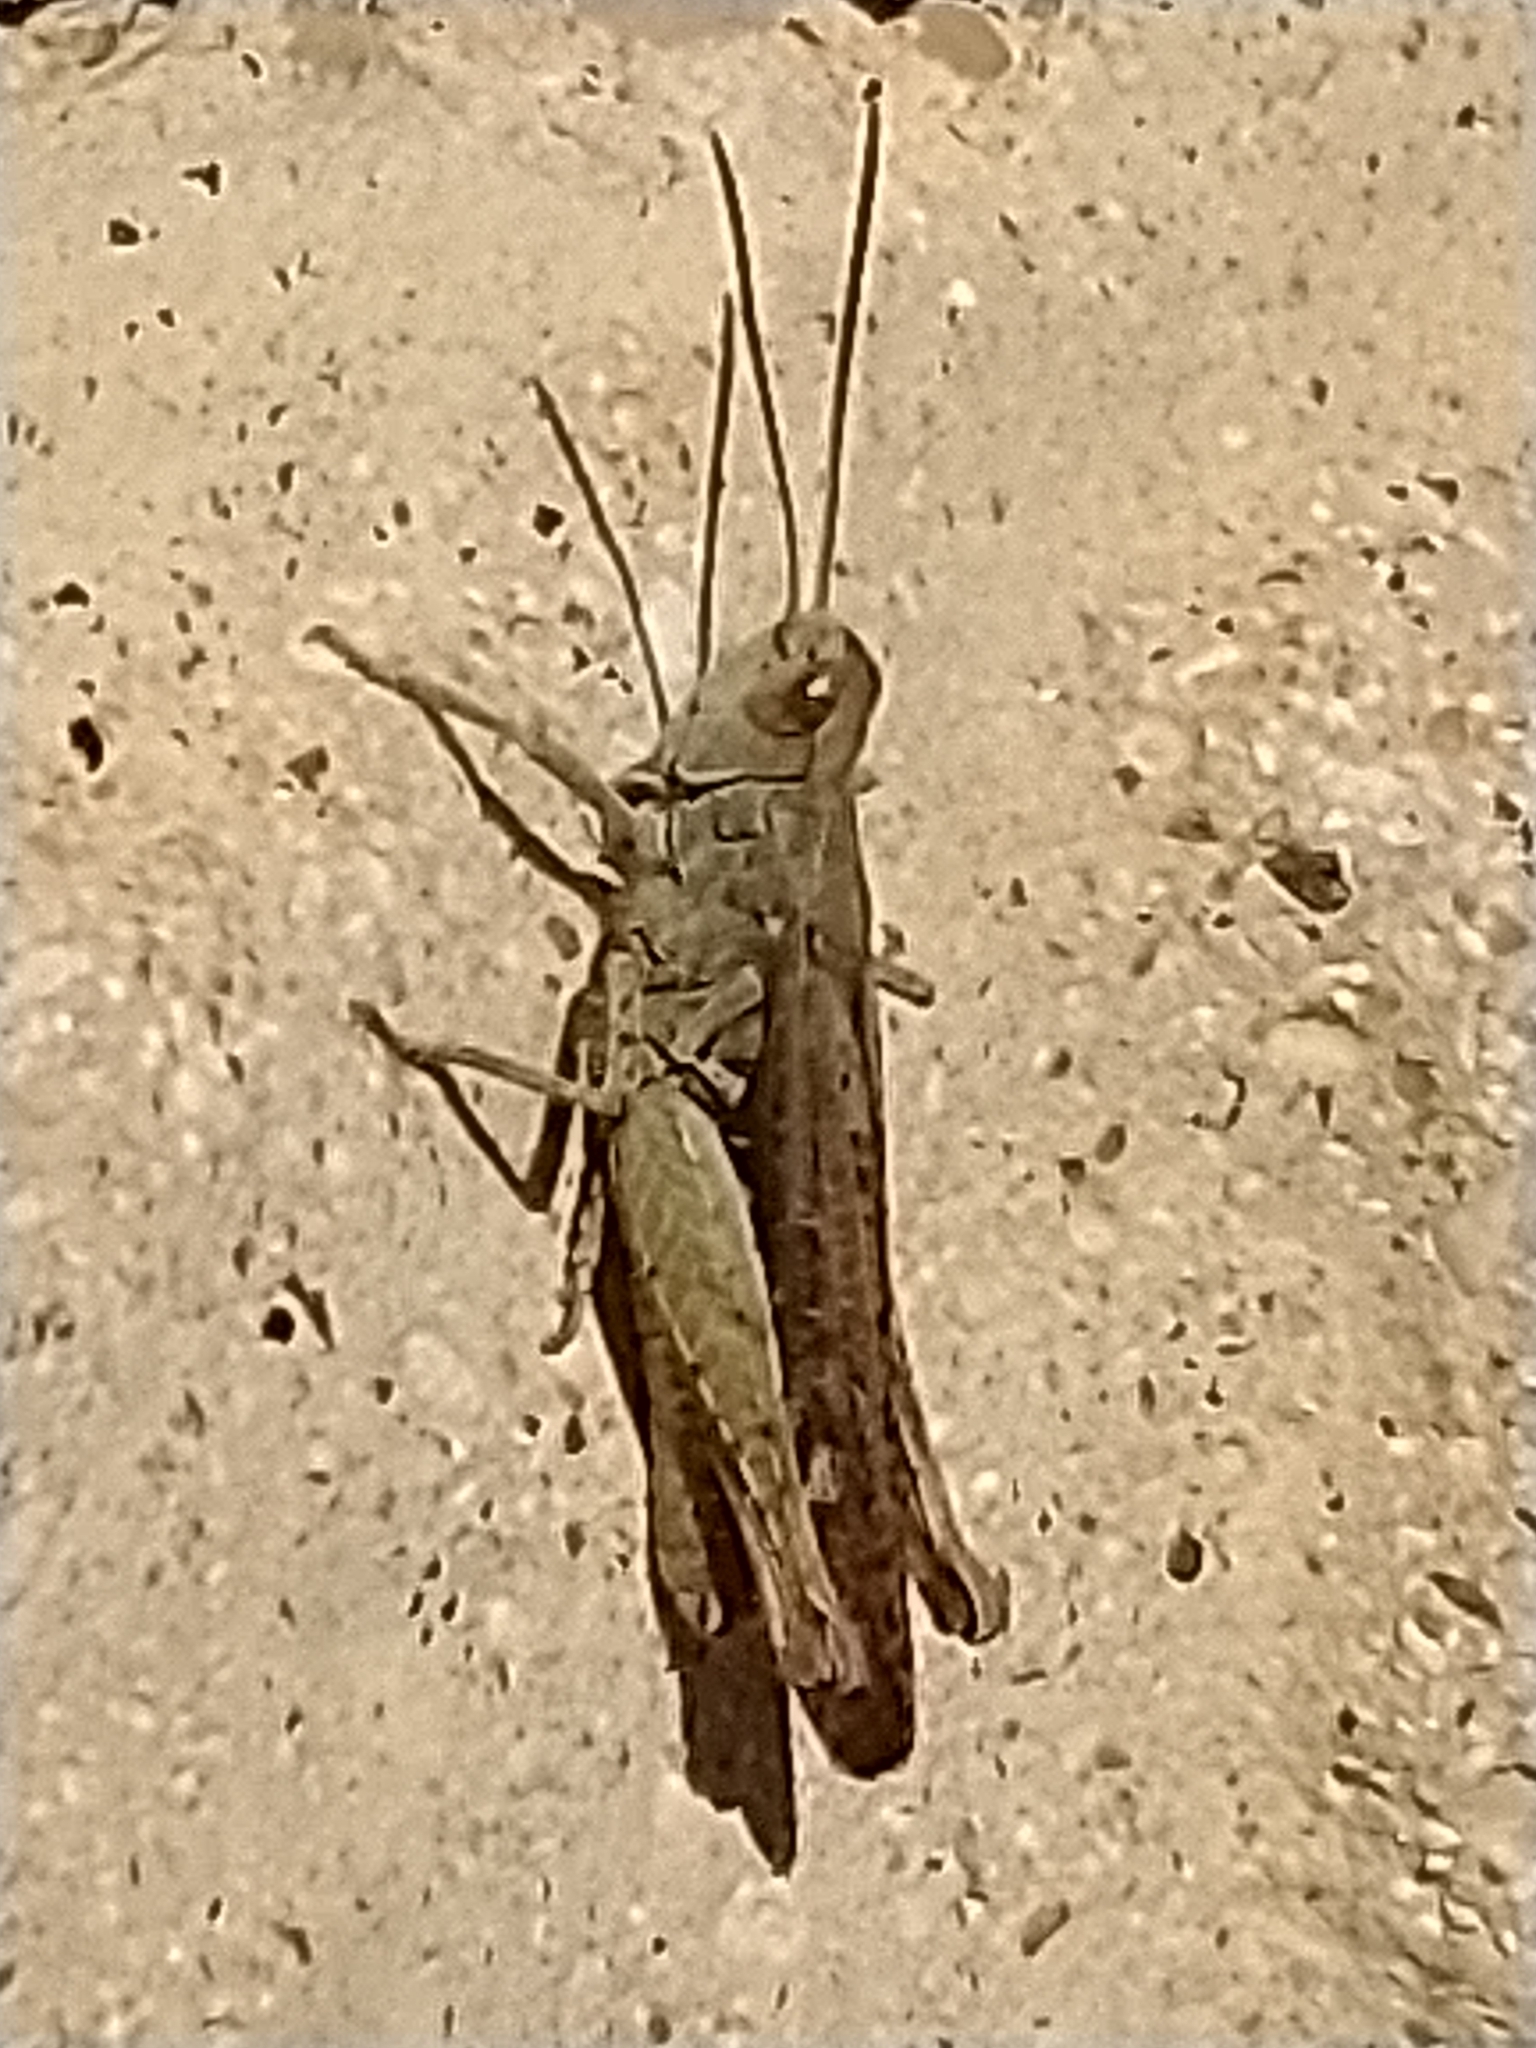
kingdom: Animalia
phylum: Arthropoda
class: Insecta
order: Orthoptera
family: Acrididae
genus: Chorthippus
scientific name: Chorthippus brunneus
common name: Field grasshopper
